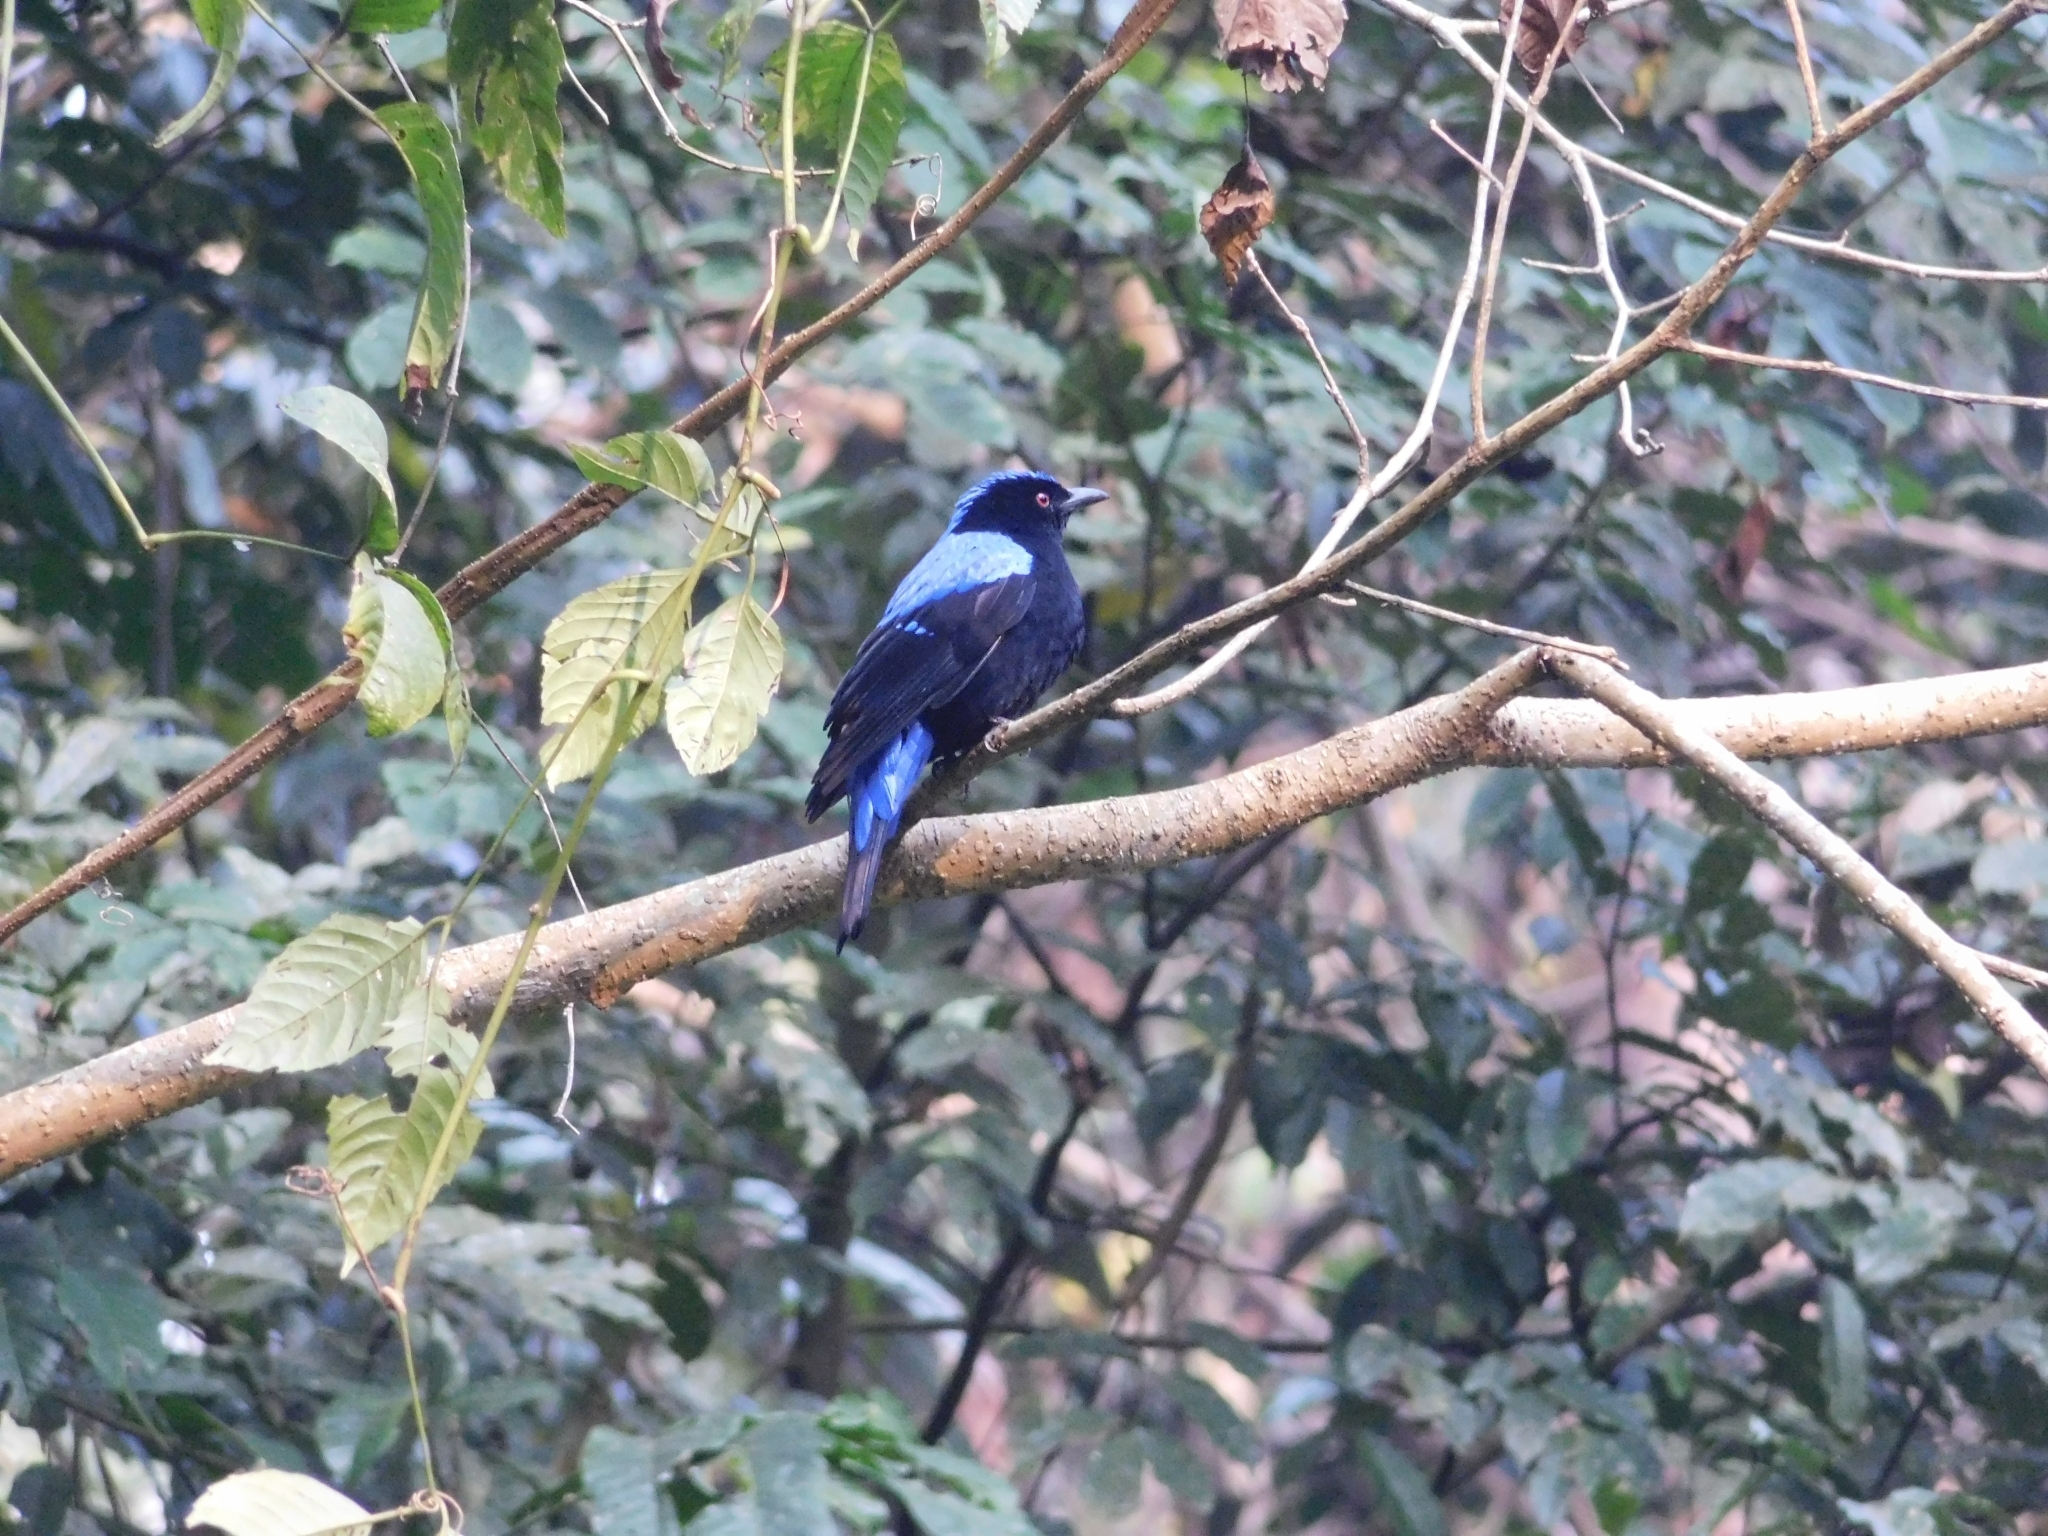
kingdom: Animalia
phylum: Chordata
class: Aves
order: Passeriformes
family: Irenidae
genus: Irena
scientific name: Irena puella
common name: Asian fairy-bluebird
